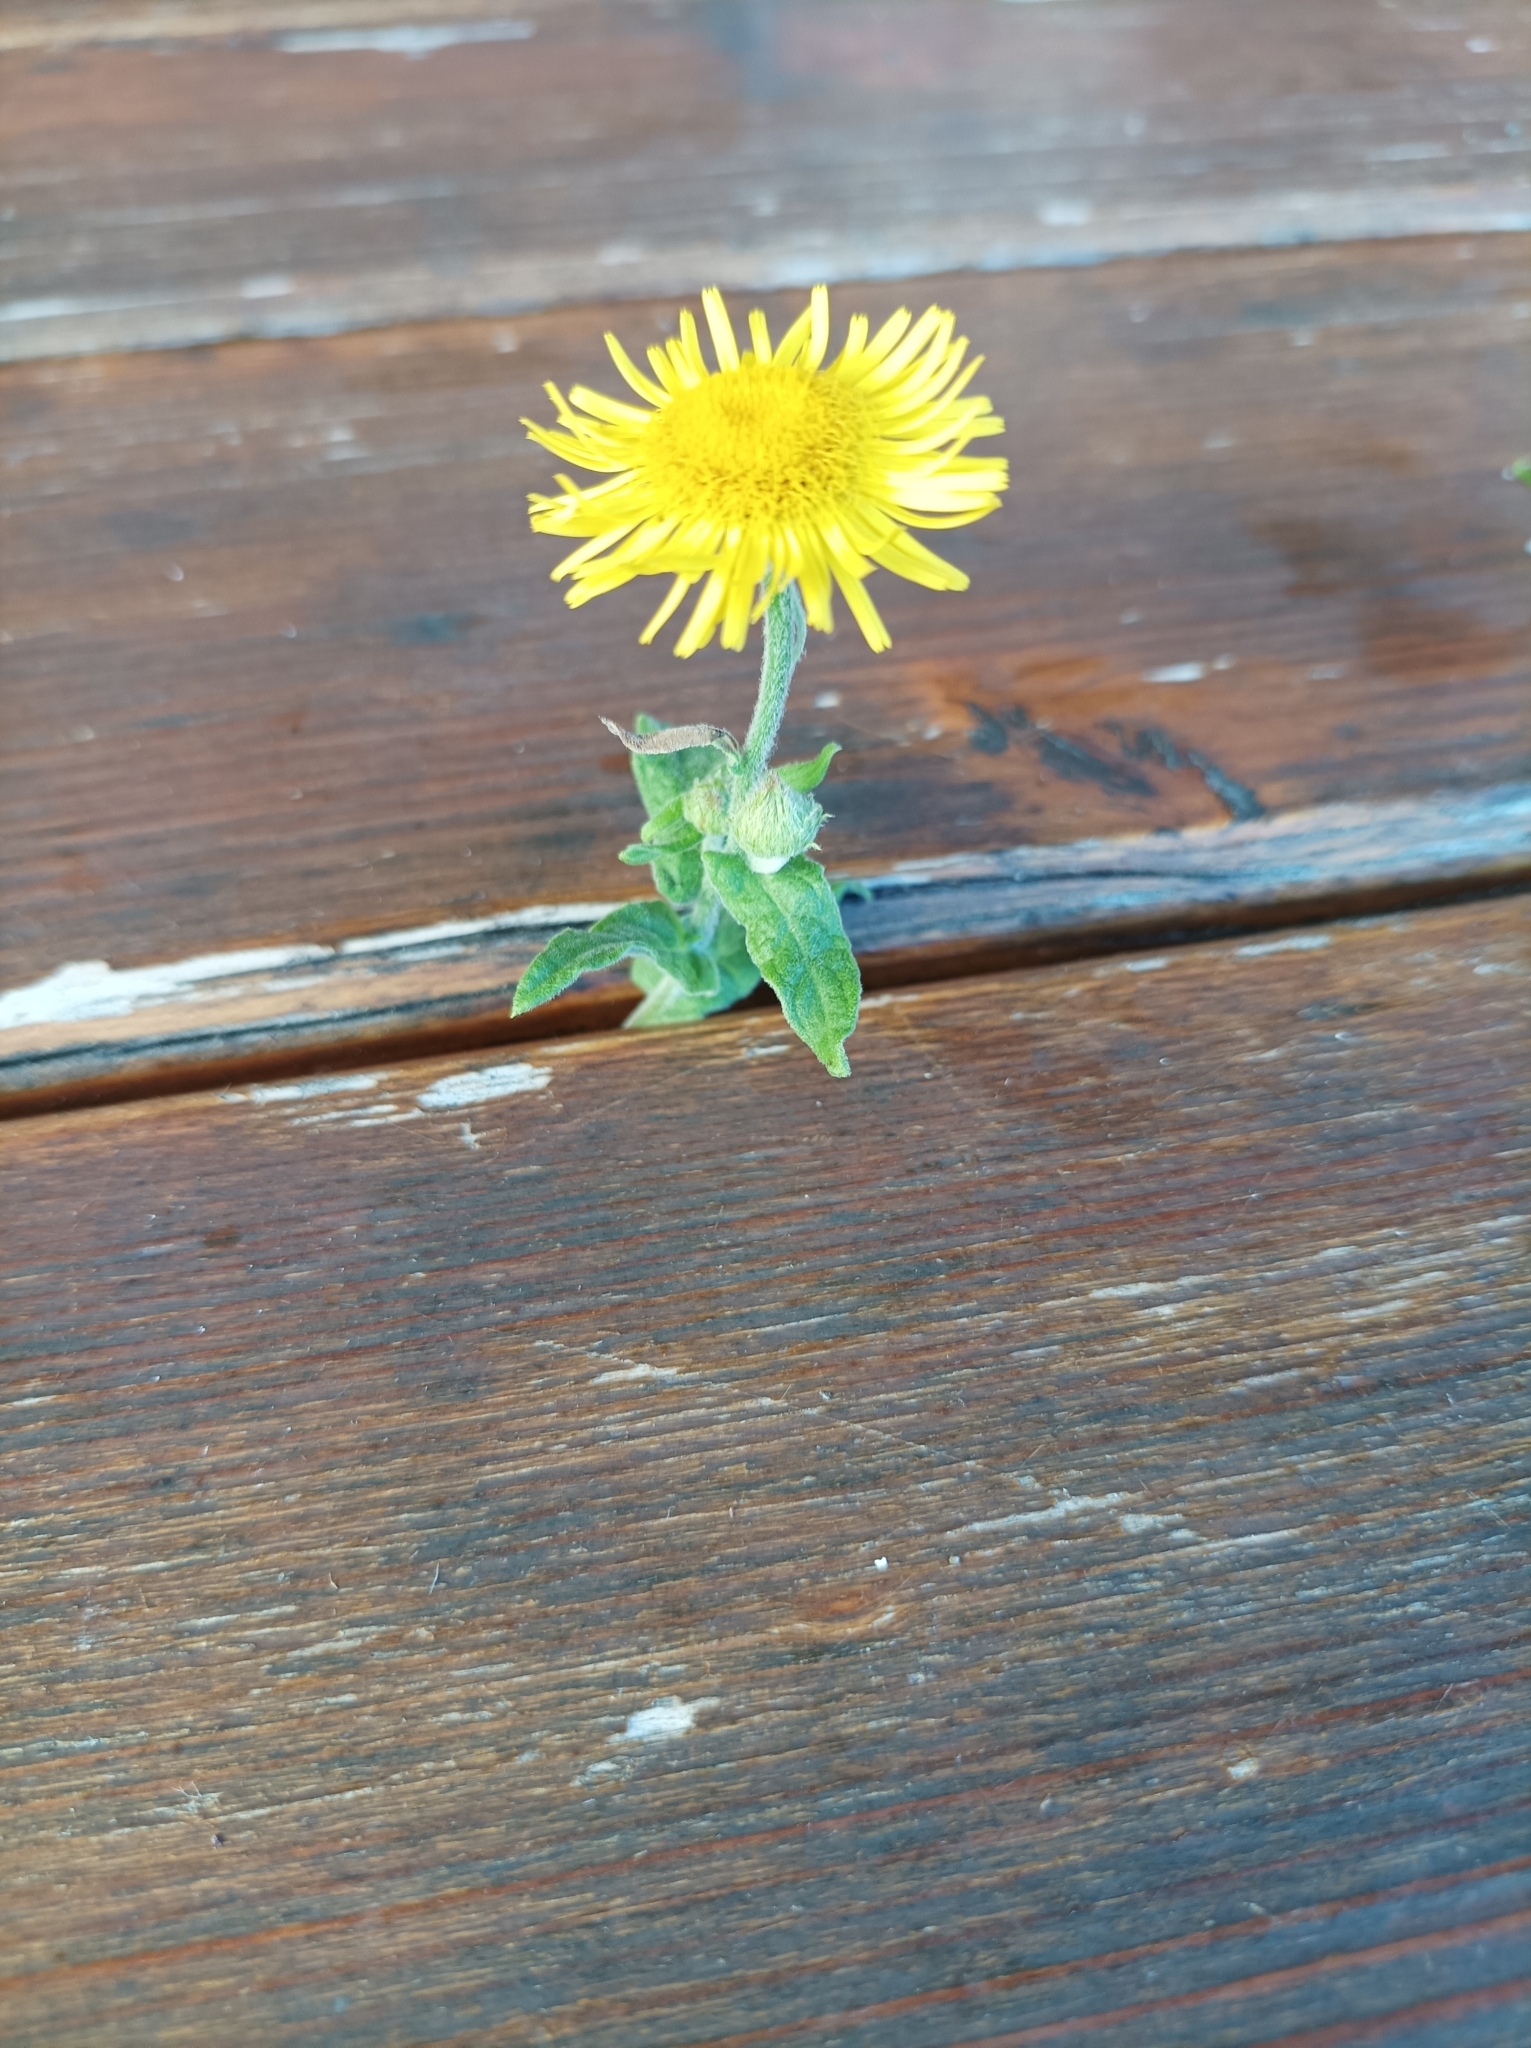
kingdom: Plantae
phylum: Tracheophyta
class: Magnoliopsida
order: Asterales
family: Asteraceae
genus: Pulicaria
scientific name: Pulicaria dysenterica
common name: Common fleabane
